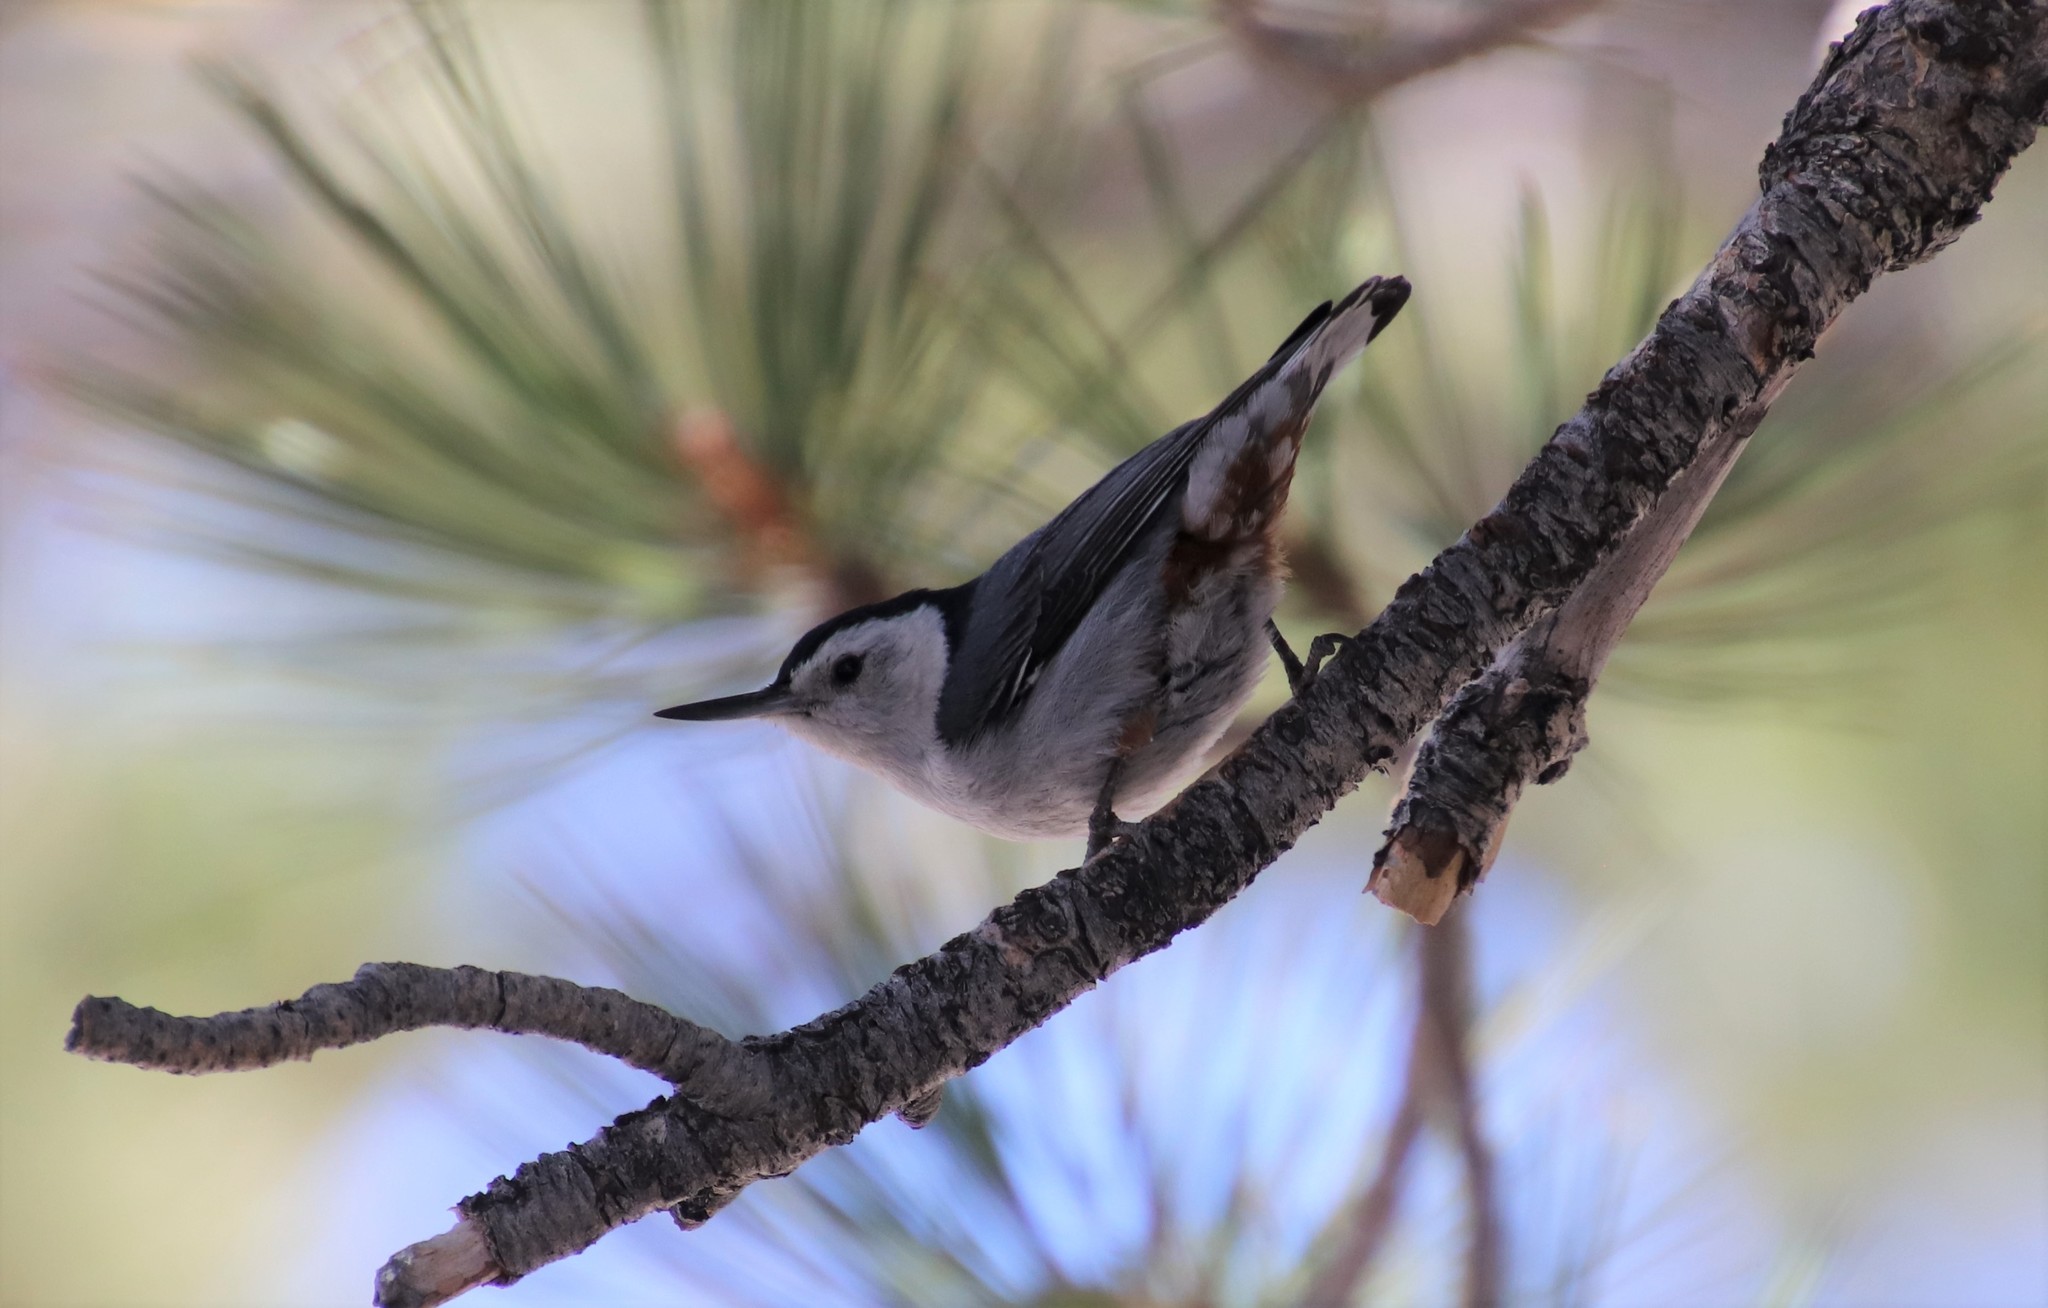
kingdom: Animalia
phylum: Chordata
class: Aves
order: Passeriformes
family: Sittidae
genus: Sitta
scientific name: Sitta carolinensis
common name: White-breasted nuthatch
